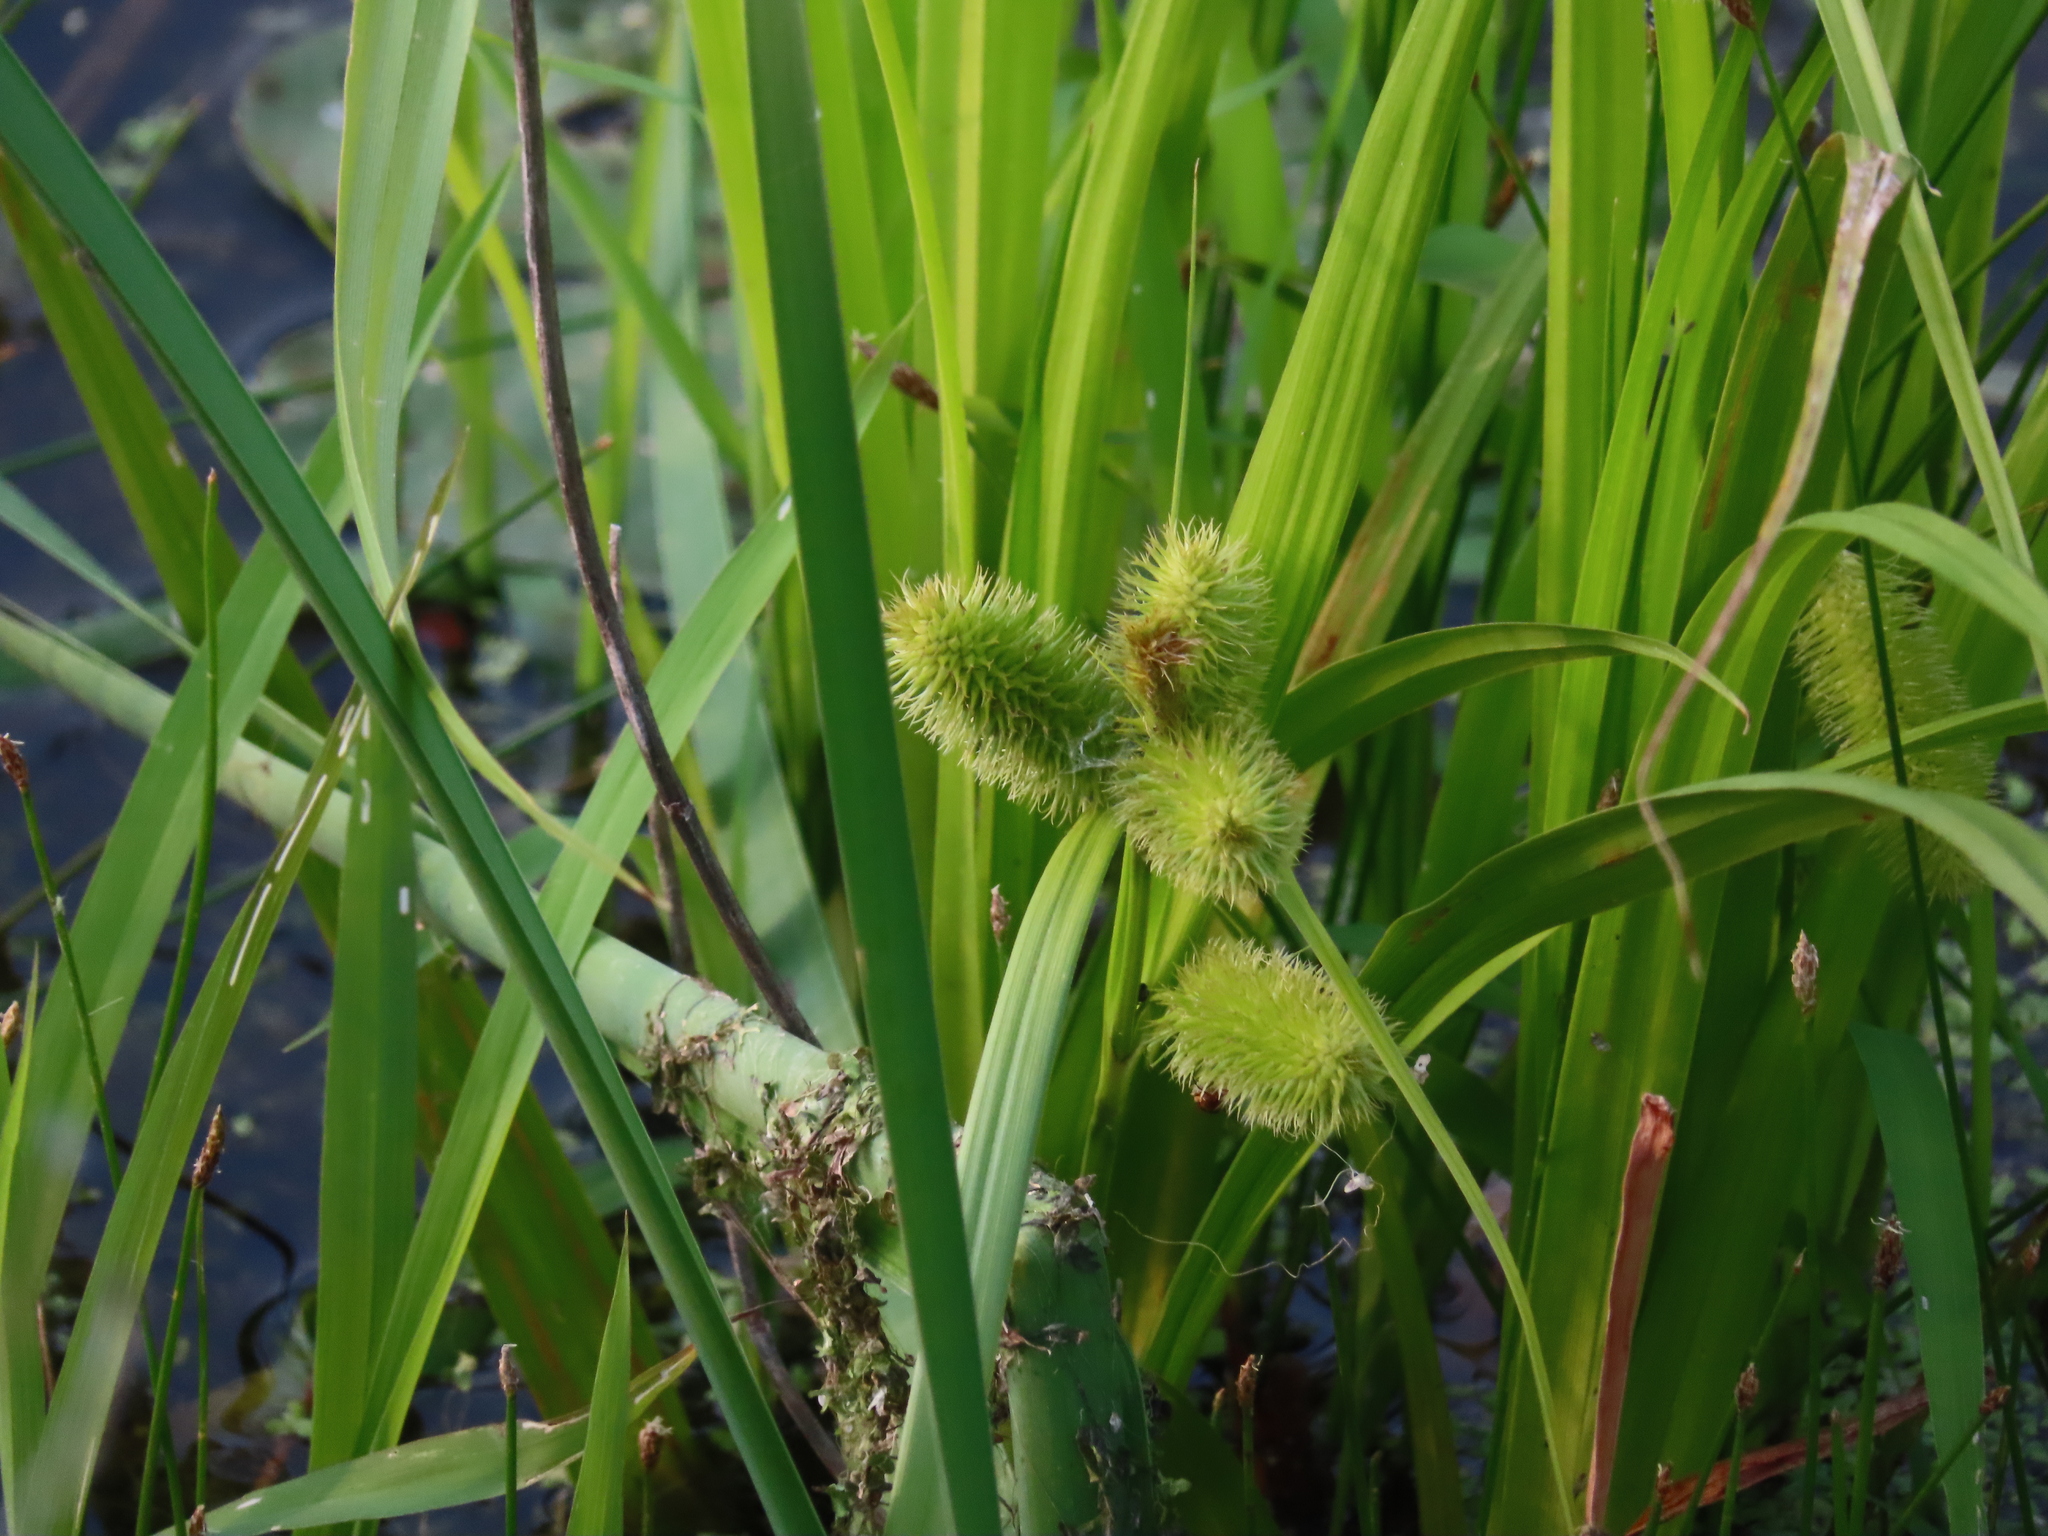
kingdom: Plantae
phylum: Tracheophyta
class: Liliopsida
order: Poales
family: Cyperaceae
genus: Carex
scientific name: Carex comosa
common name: Bristly sedge
